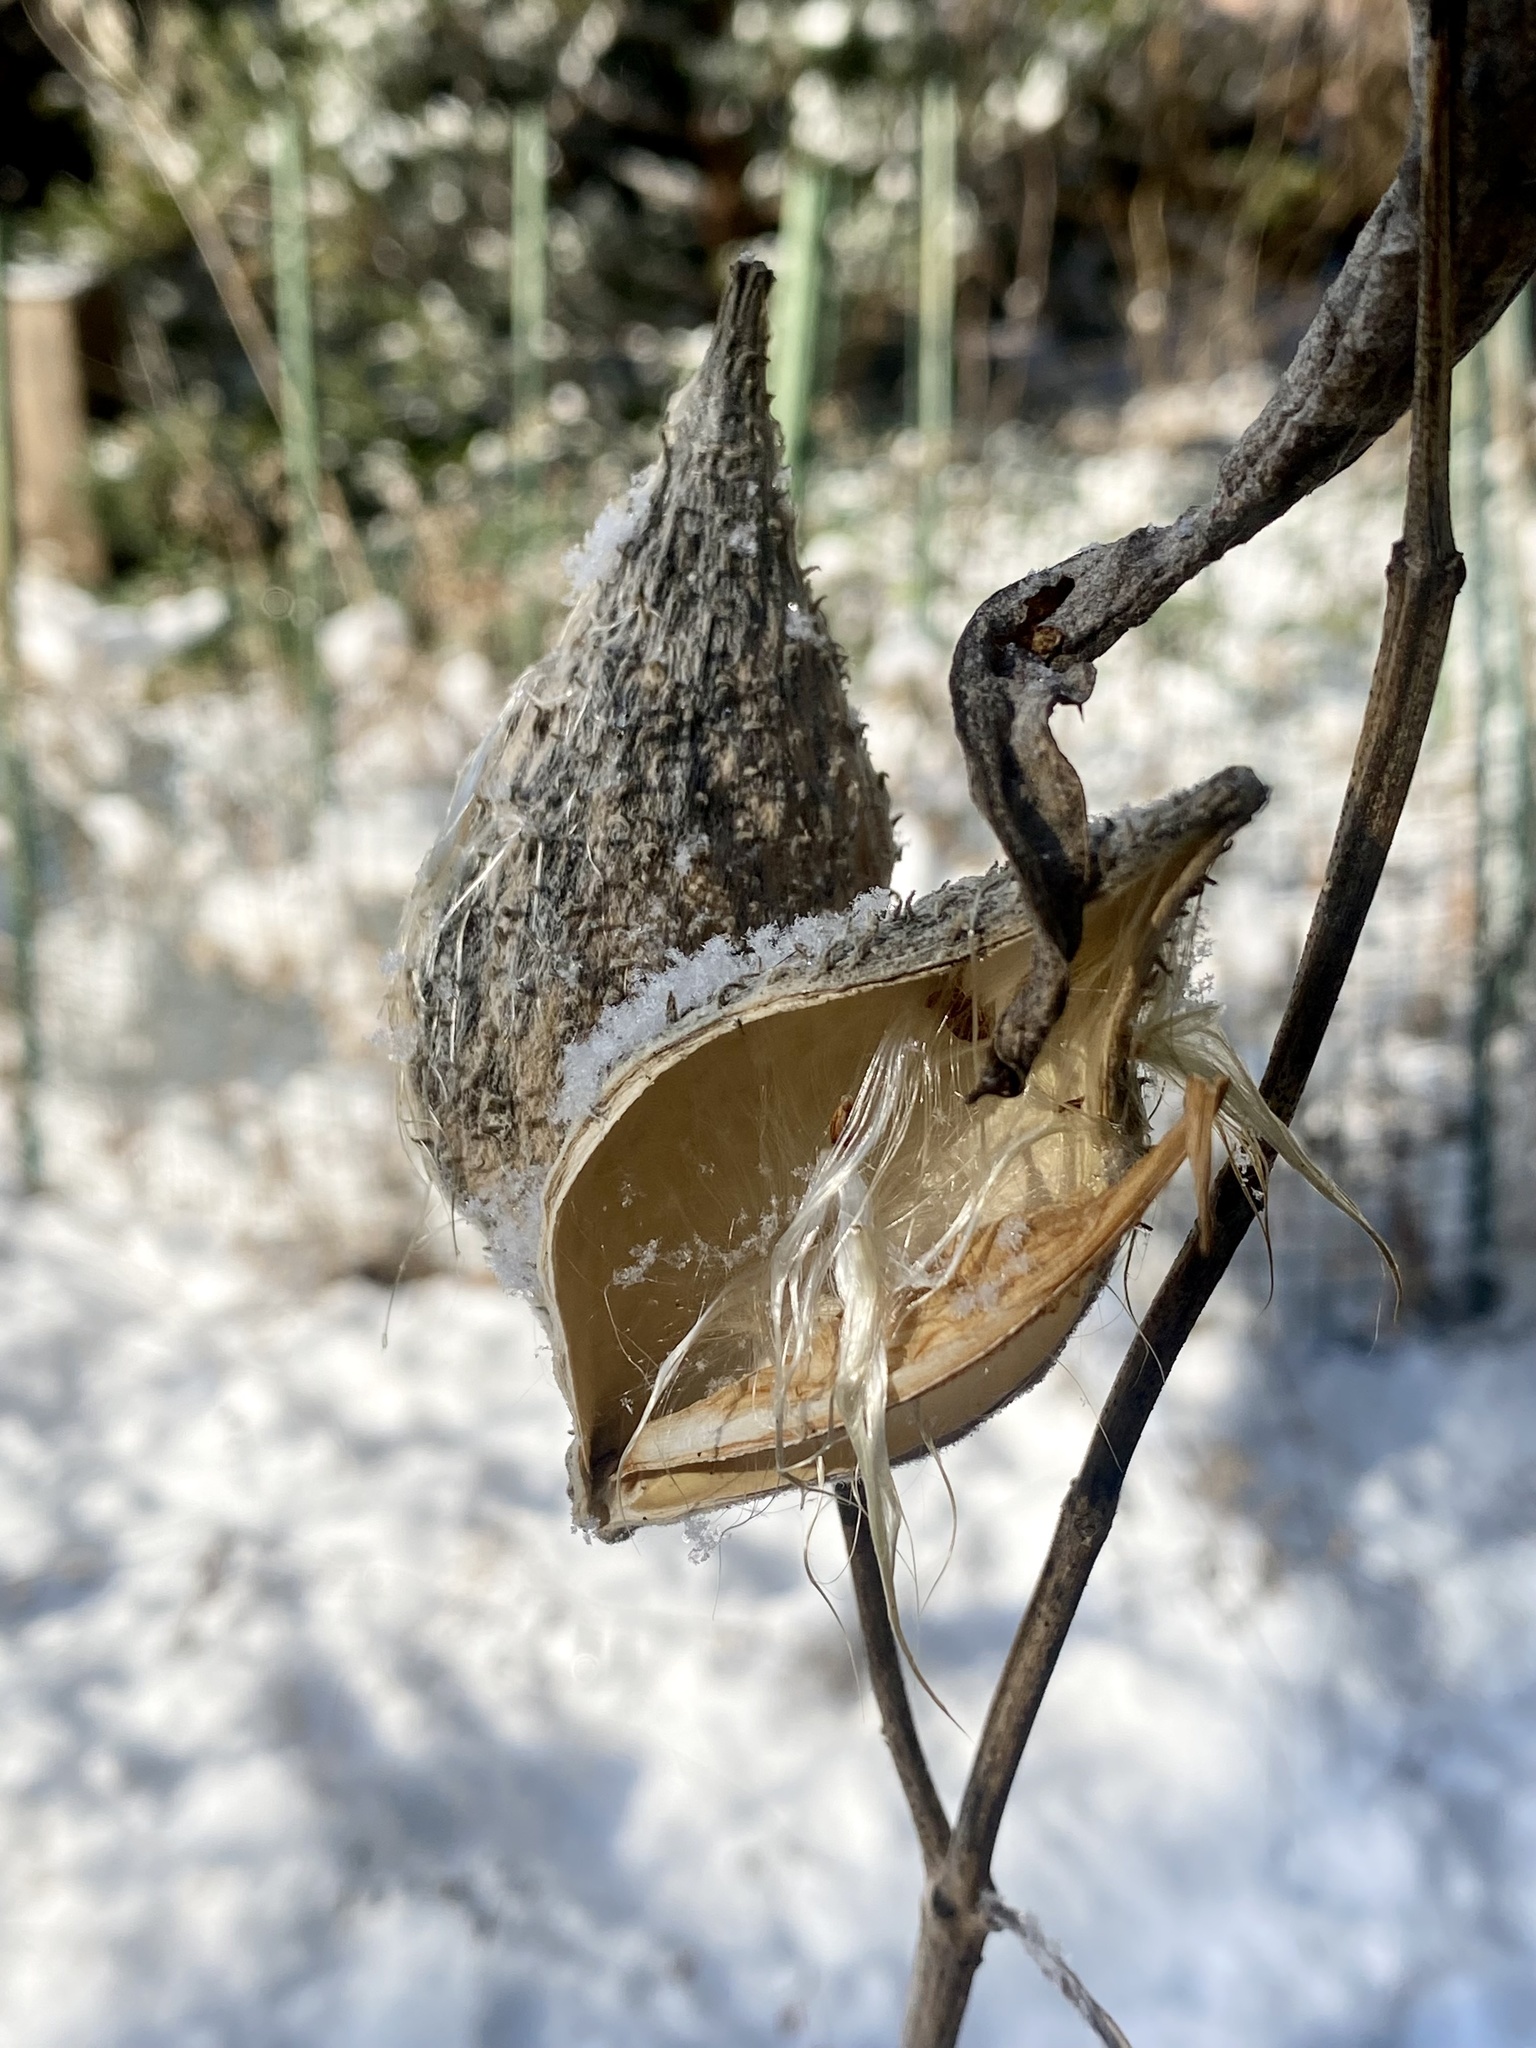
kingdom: Plantae
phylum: Tracheophyta
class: Magnoliopsida
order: Gentianales
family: Apocynaceae
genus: Asclepias
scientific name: Asclepias syriaca
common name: Common milkweed
